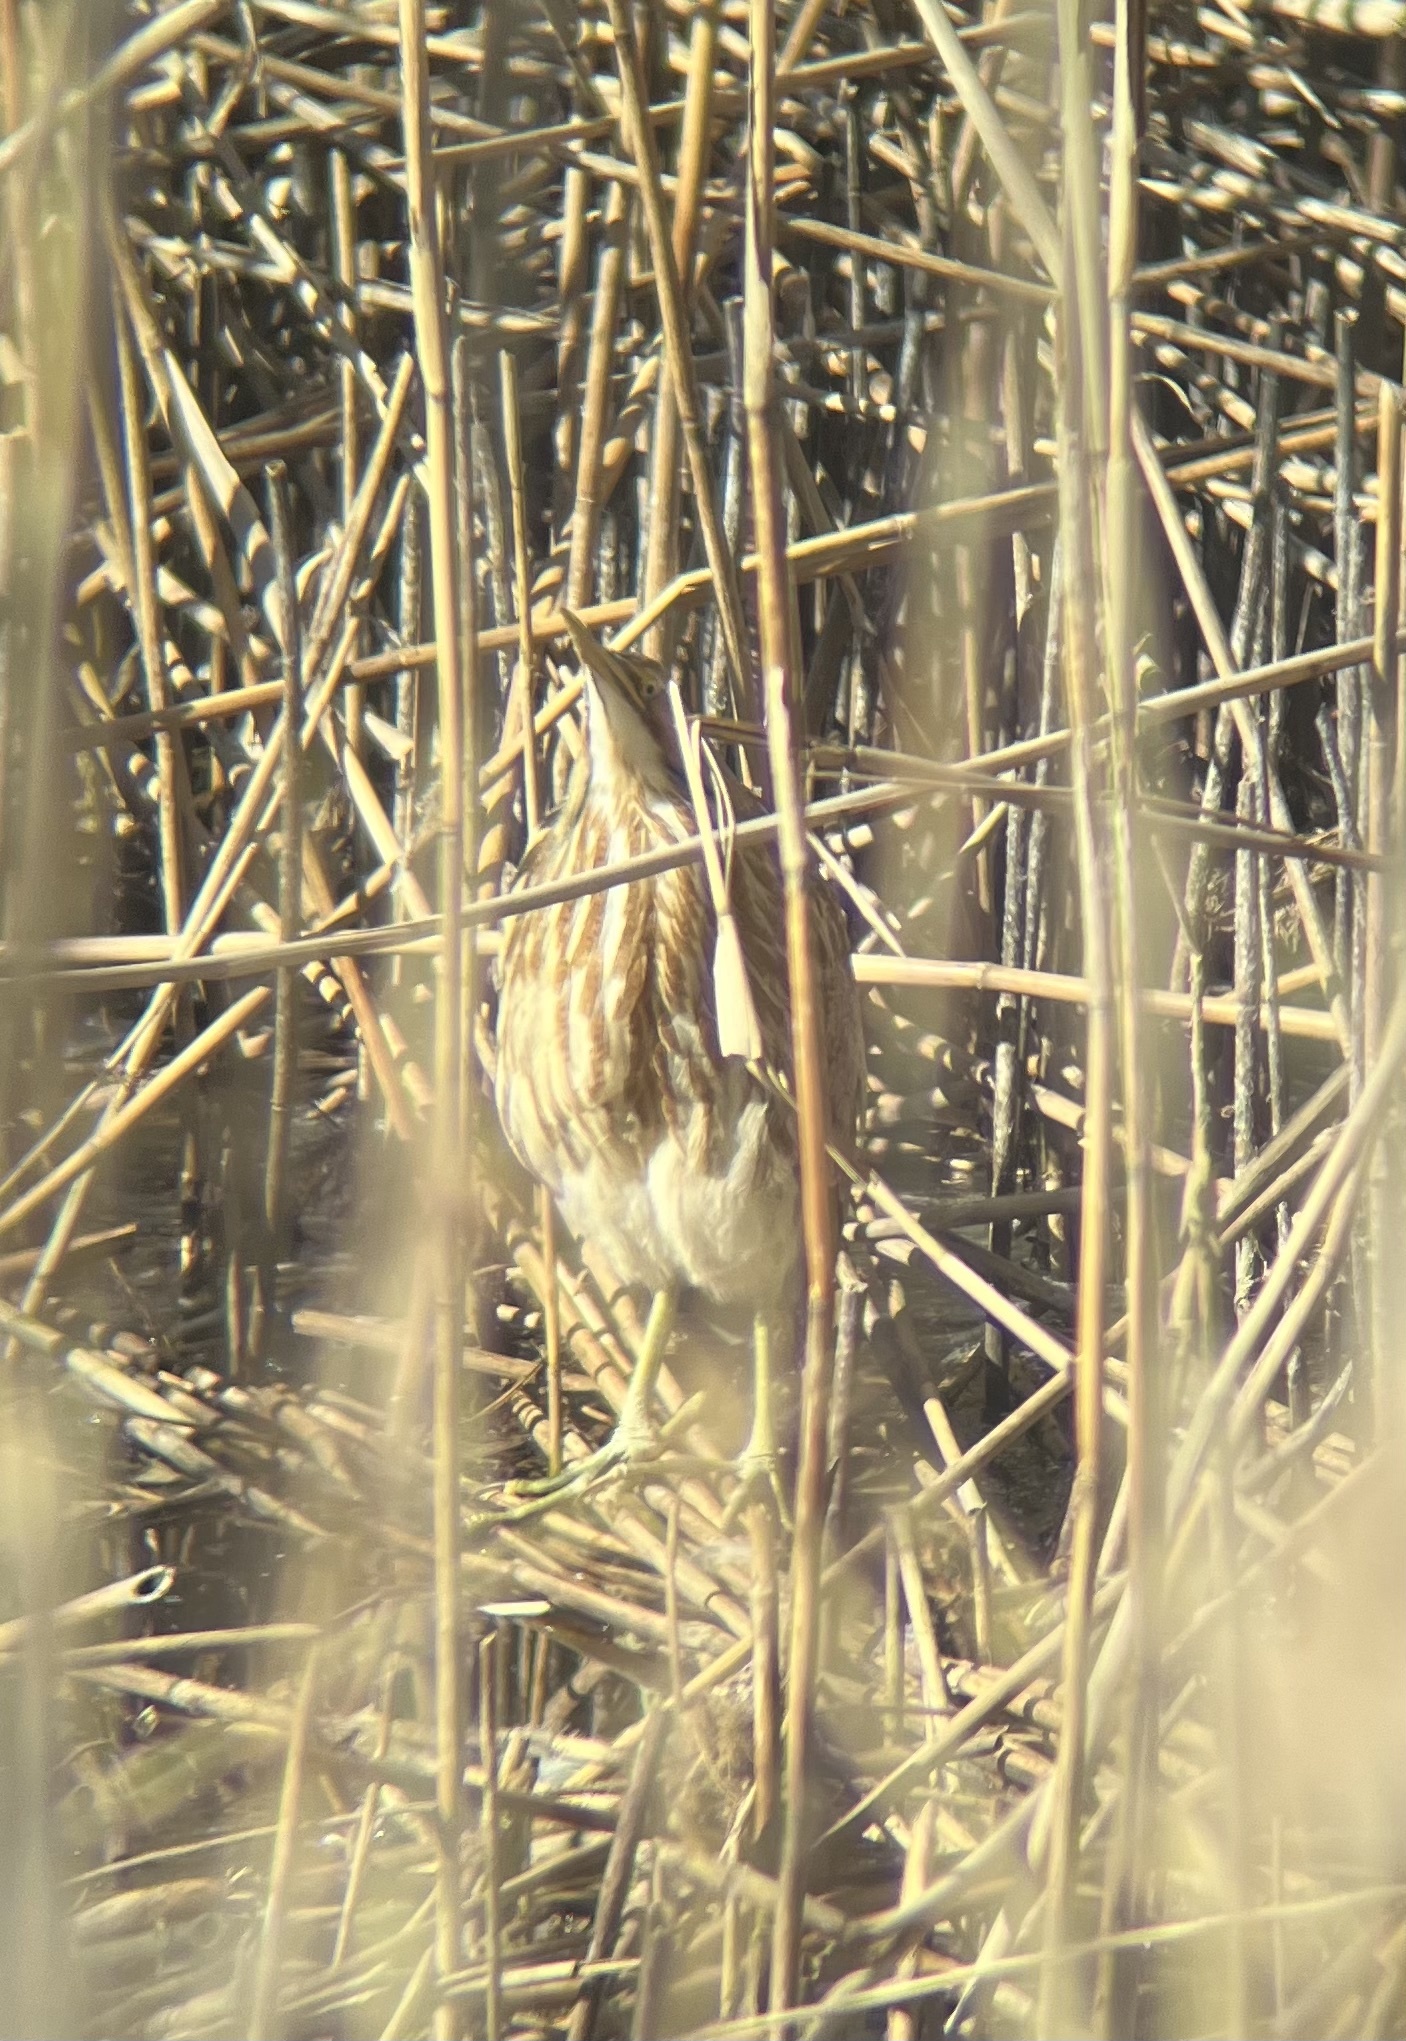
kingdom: Animalia
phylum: Chordata
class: Aves
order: Pelecaniformes
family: Ardeidae
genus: Botaurus
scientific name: Botaurus lentiginosus
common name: American bittern
